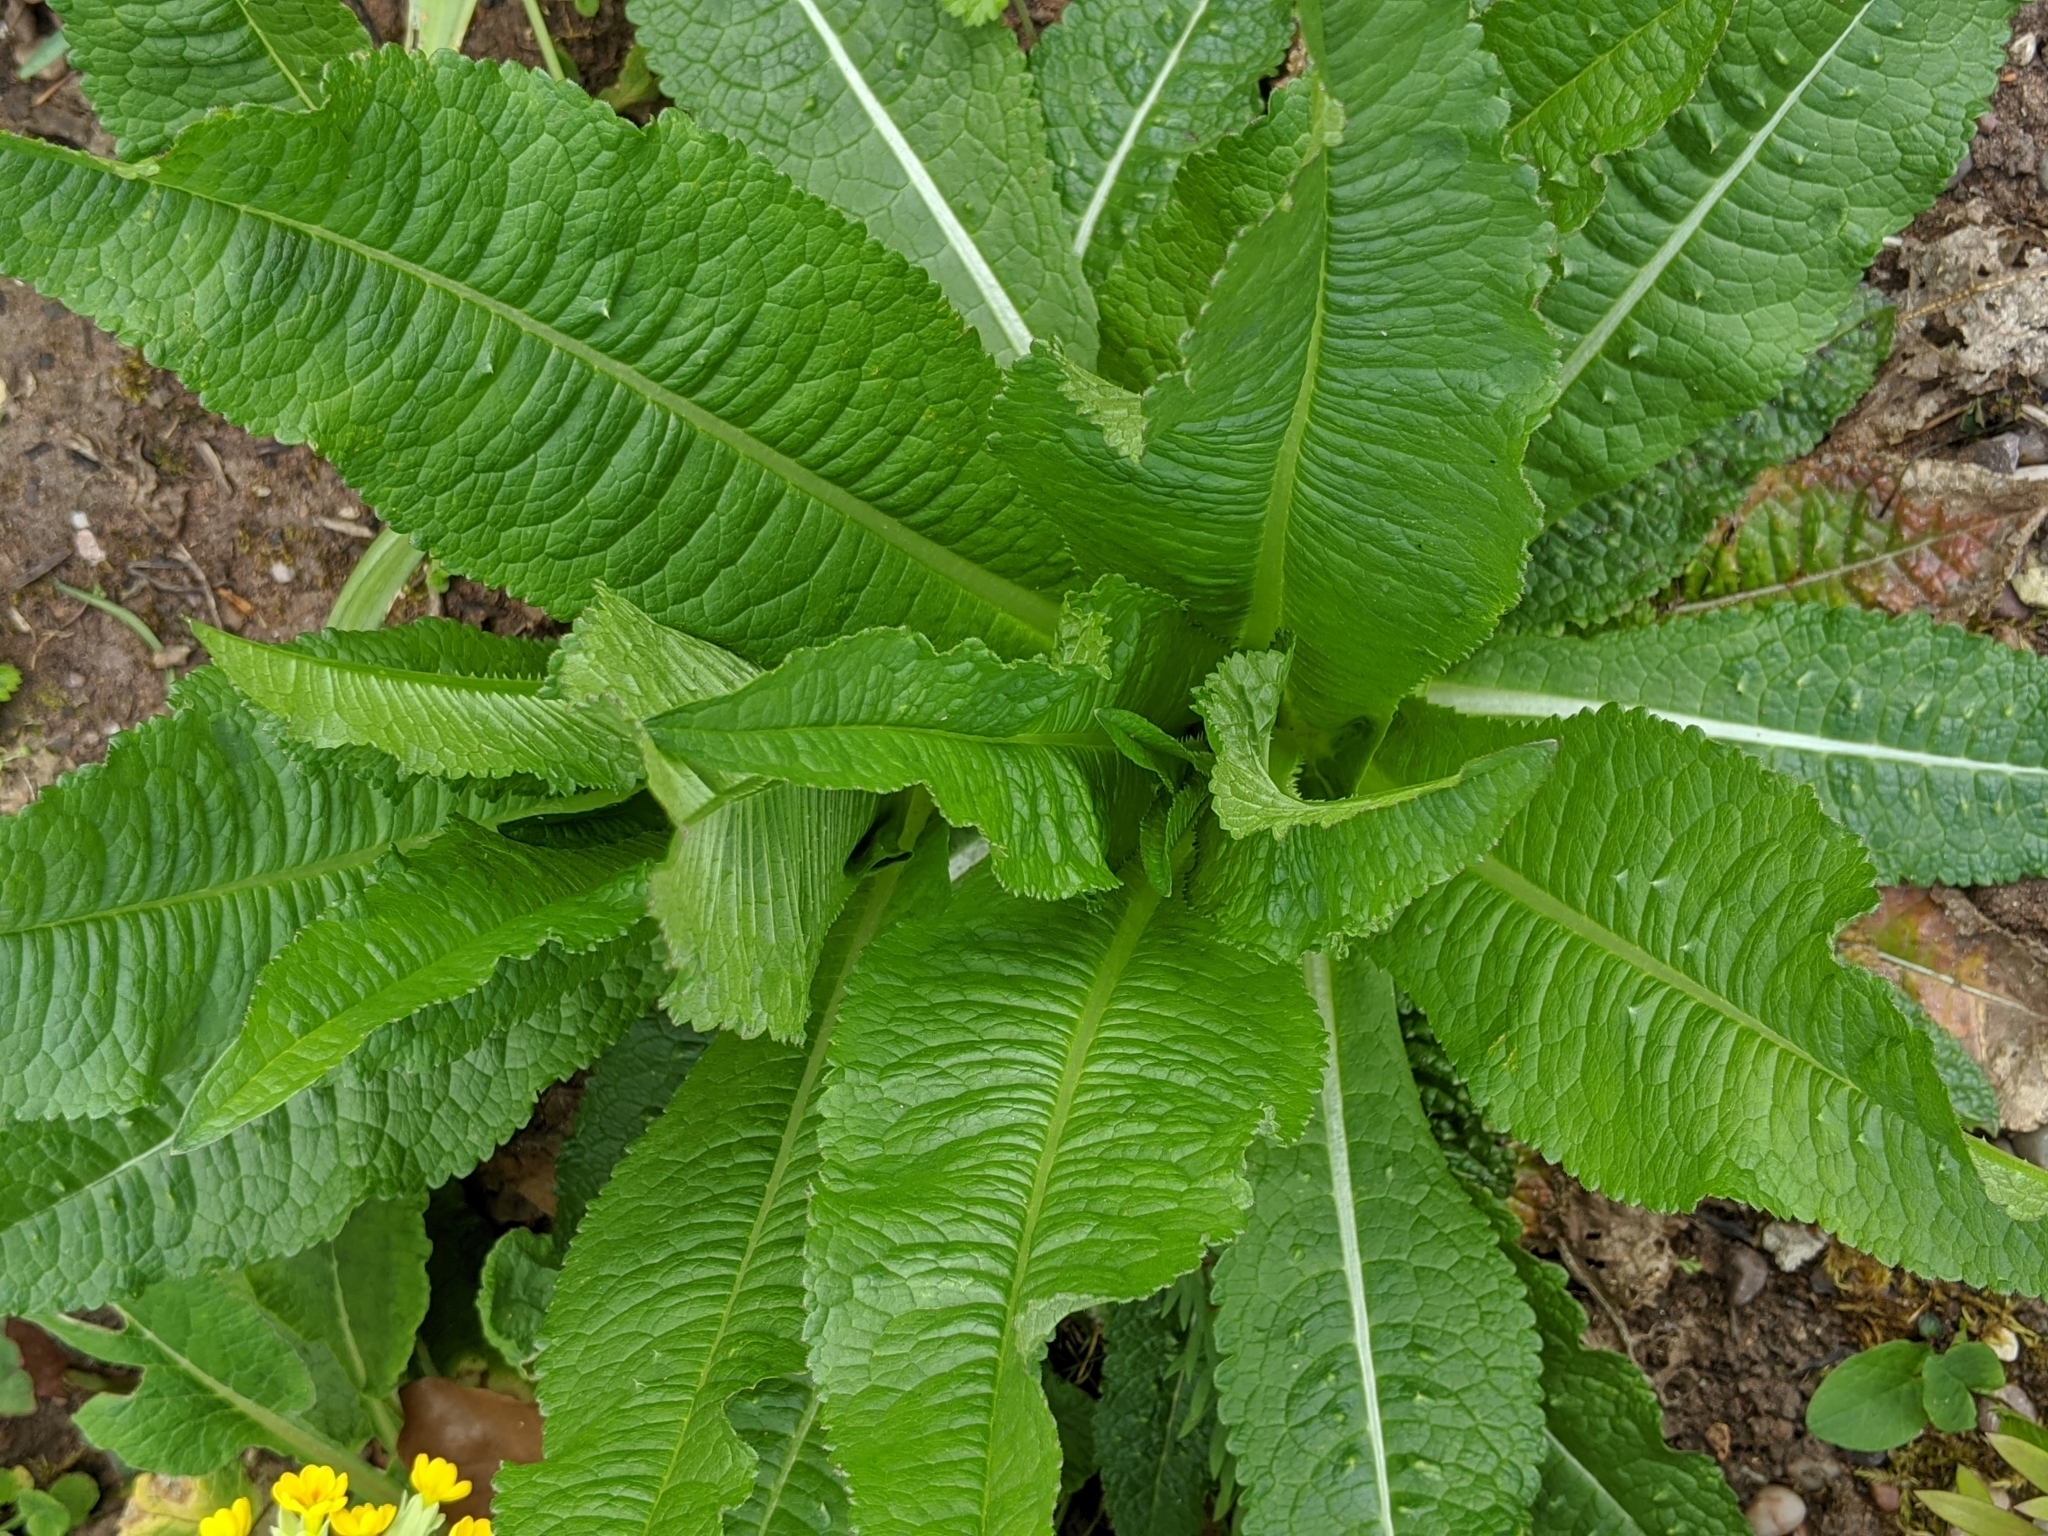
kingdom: Plantae
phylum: Tracheophyta
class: Magnoliopsida
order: Dipsacales
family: Caprifoliaceae
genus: Dipsacus
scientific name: Dipsacus fullonum
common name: Teasel
